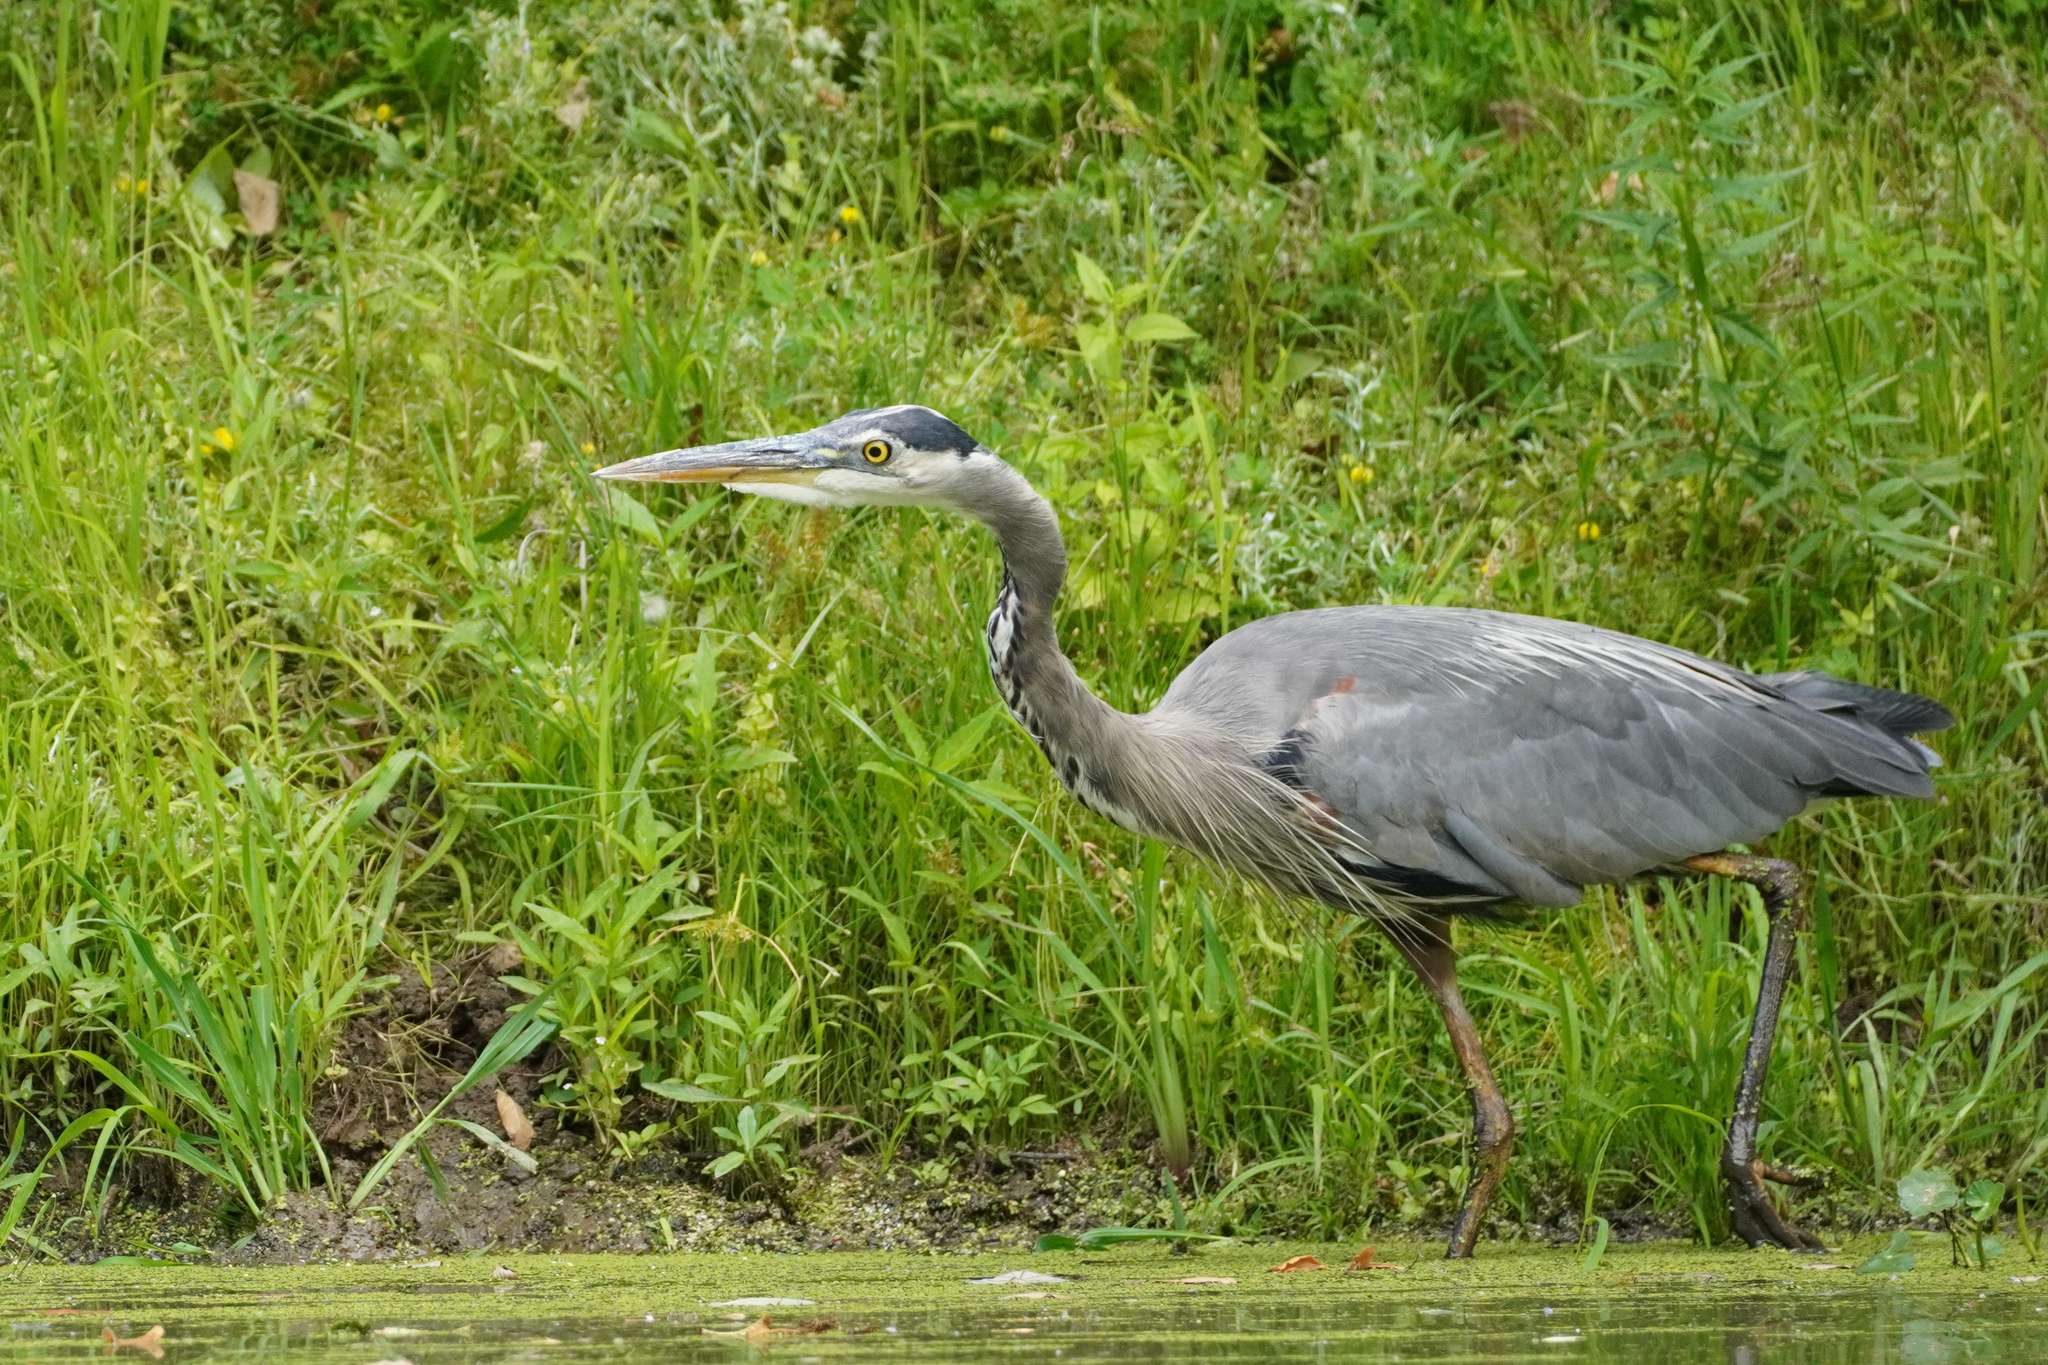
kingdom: Animalia
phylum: Chordata
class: Aves
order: Pelecaniformes
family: Ardeidae
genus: Ardea
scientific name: Ardea herodias
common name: Great blue heron
